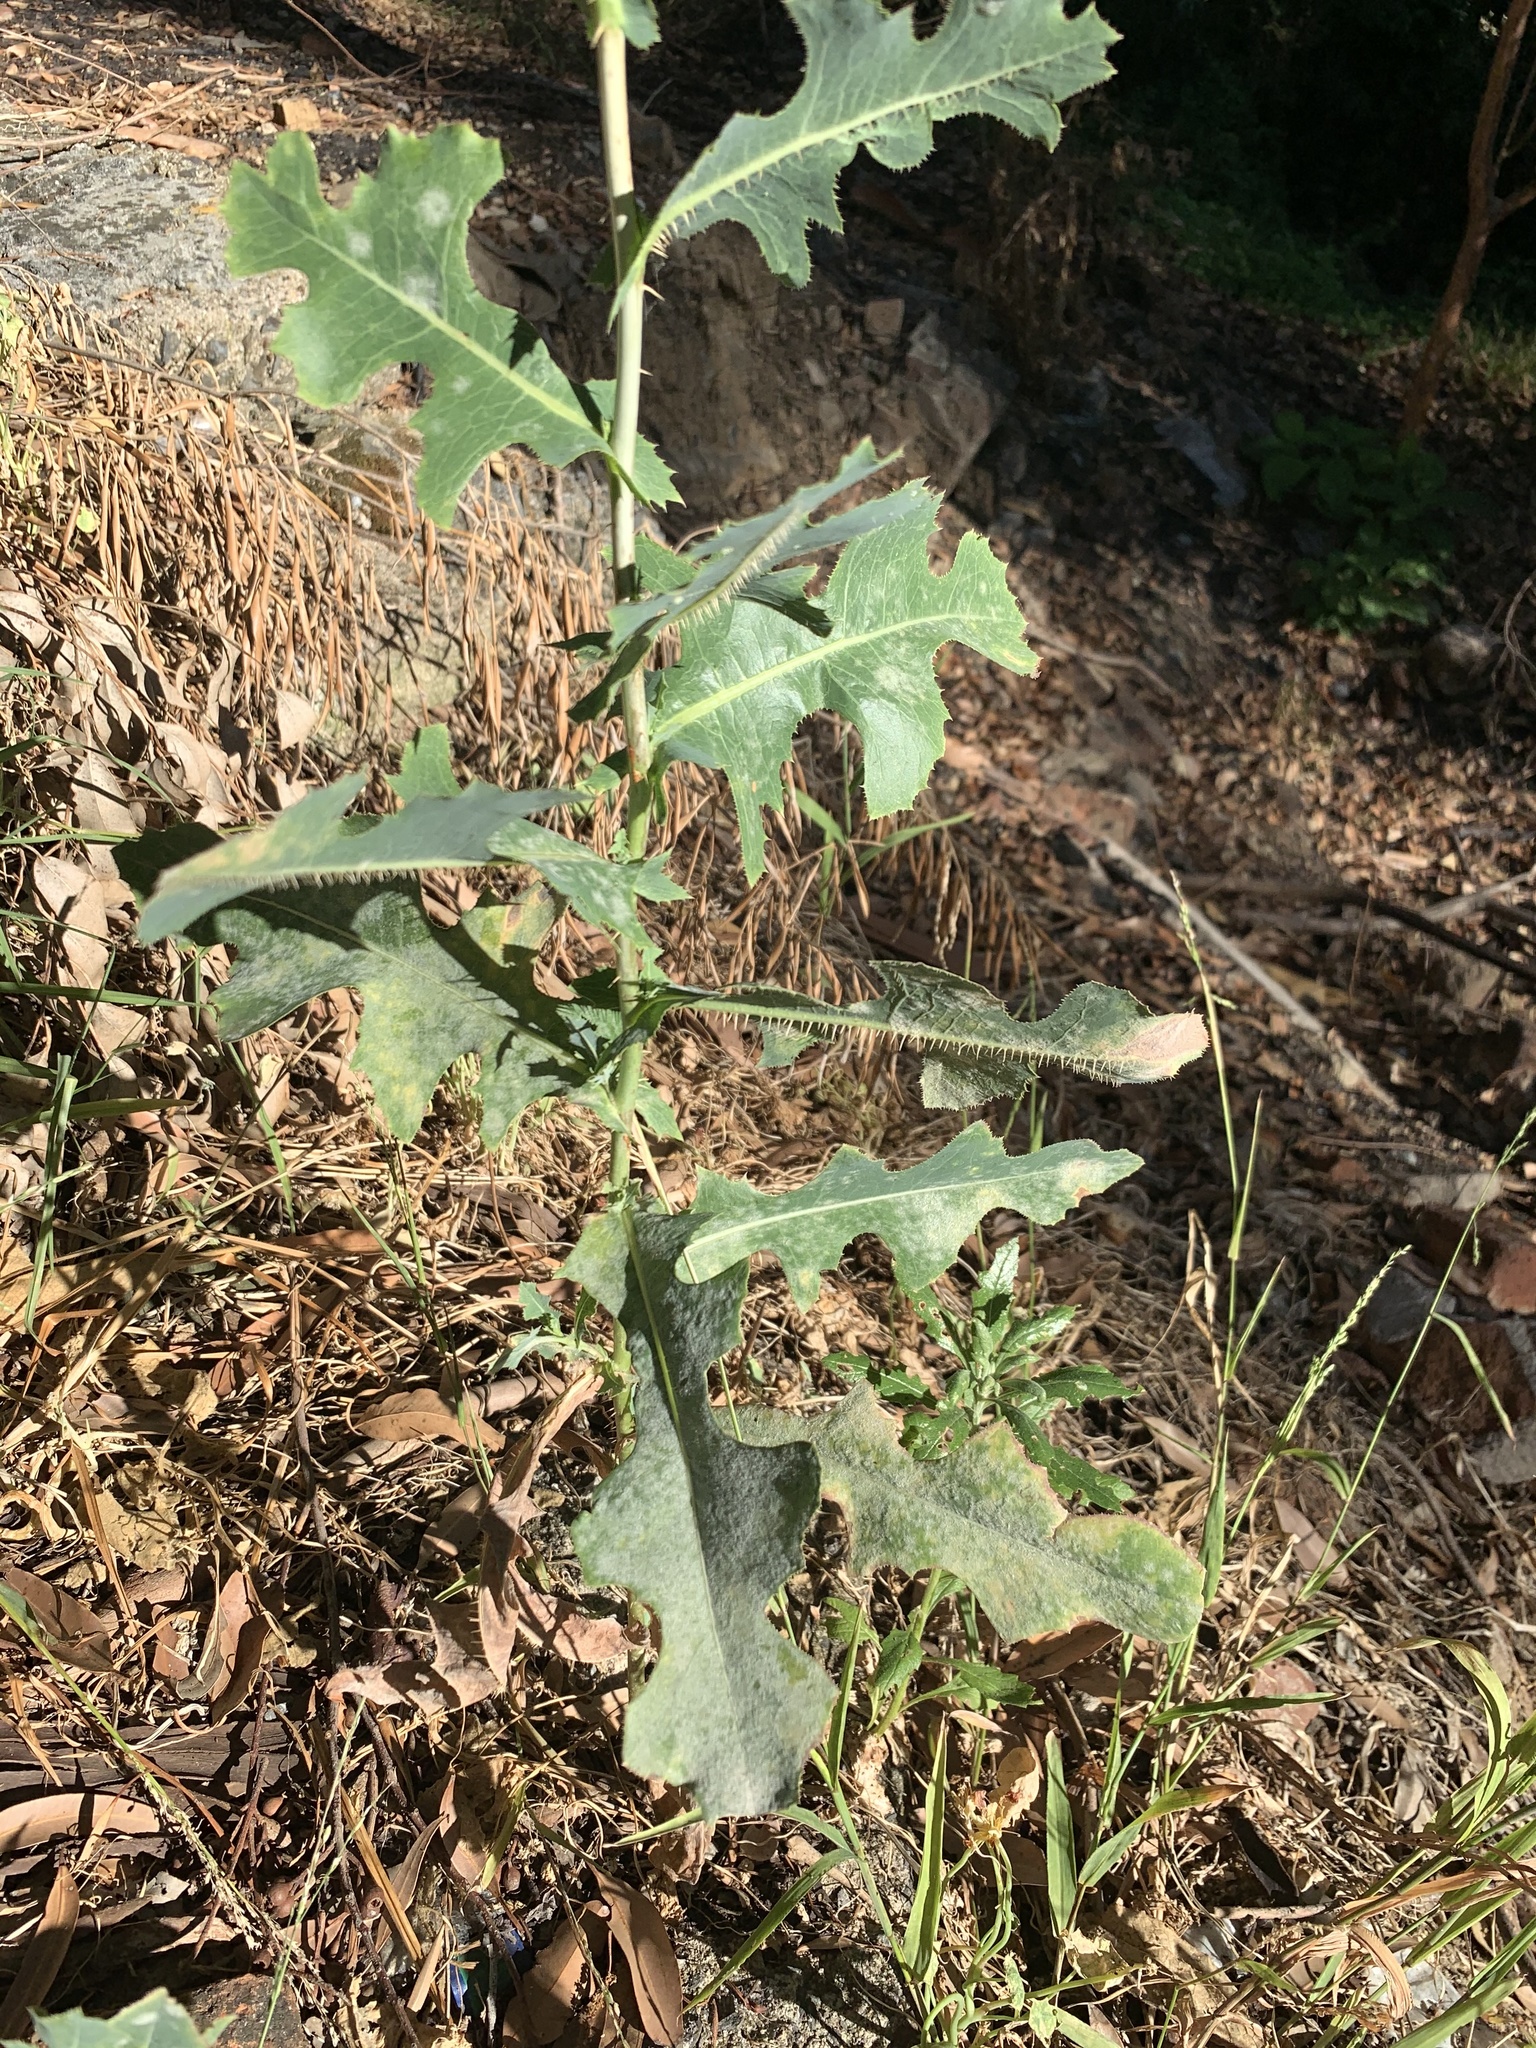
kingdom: Plantae
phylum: Tracheophyta
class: Magnoliopsida
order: Asterales
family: Asteraceae
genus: Lactuca
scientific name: Lactuca serriola
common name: Prickly lettuce
